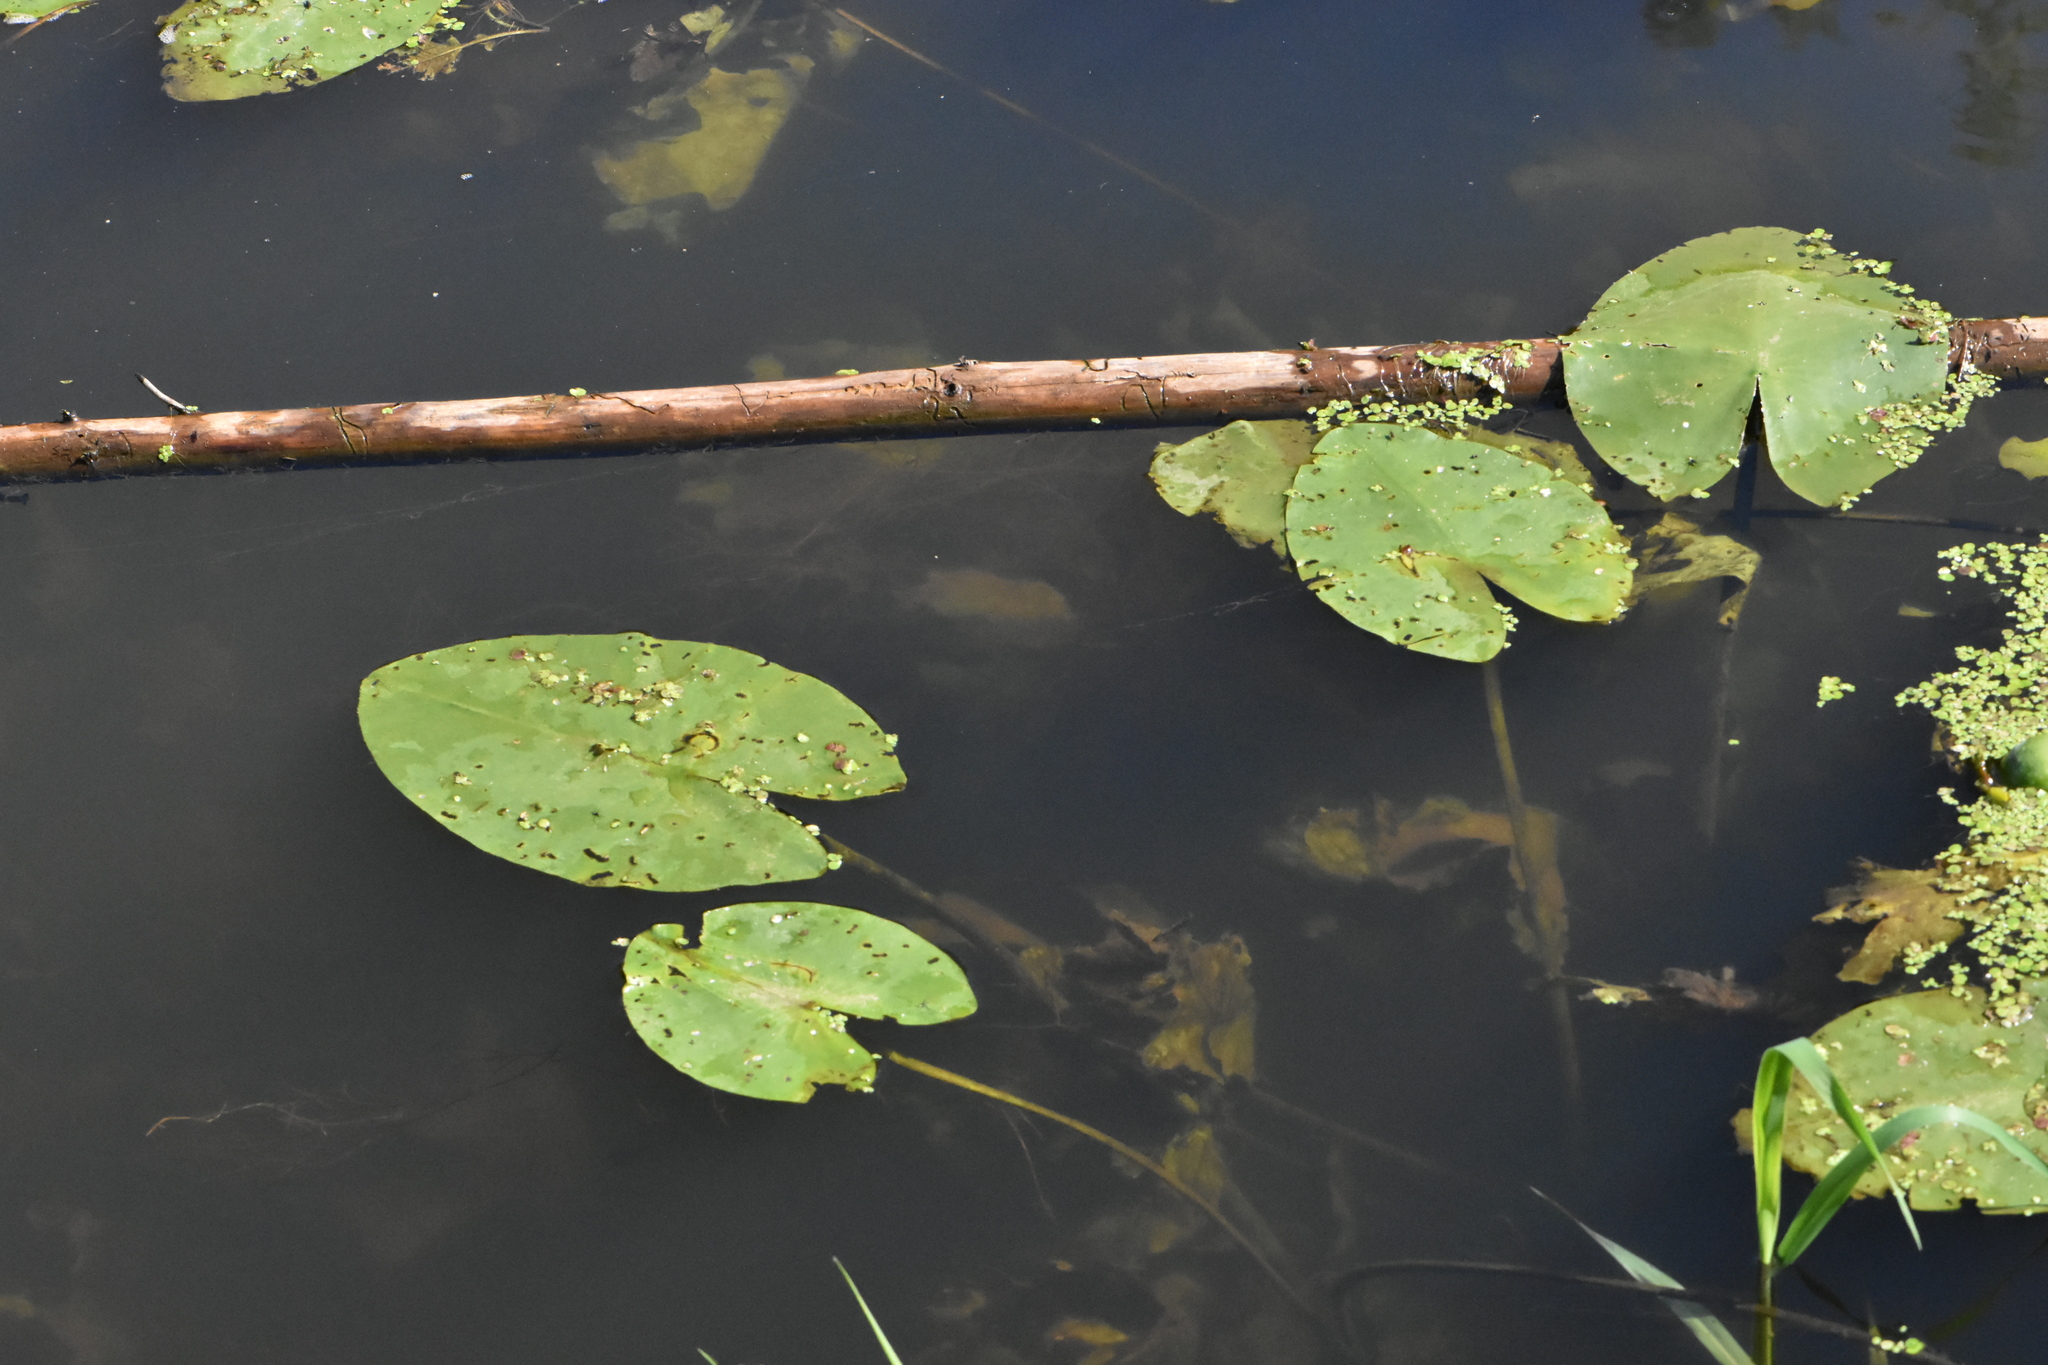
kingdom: Plantae
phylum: Tracheophyta
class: Magnoliopsida
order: Nymphaeales
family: Nymphaeaceae
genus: Nuphar
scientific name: Nuphar lutea
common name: Yellow water-lily
